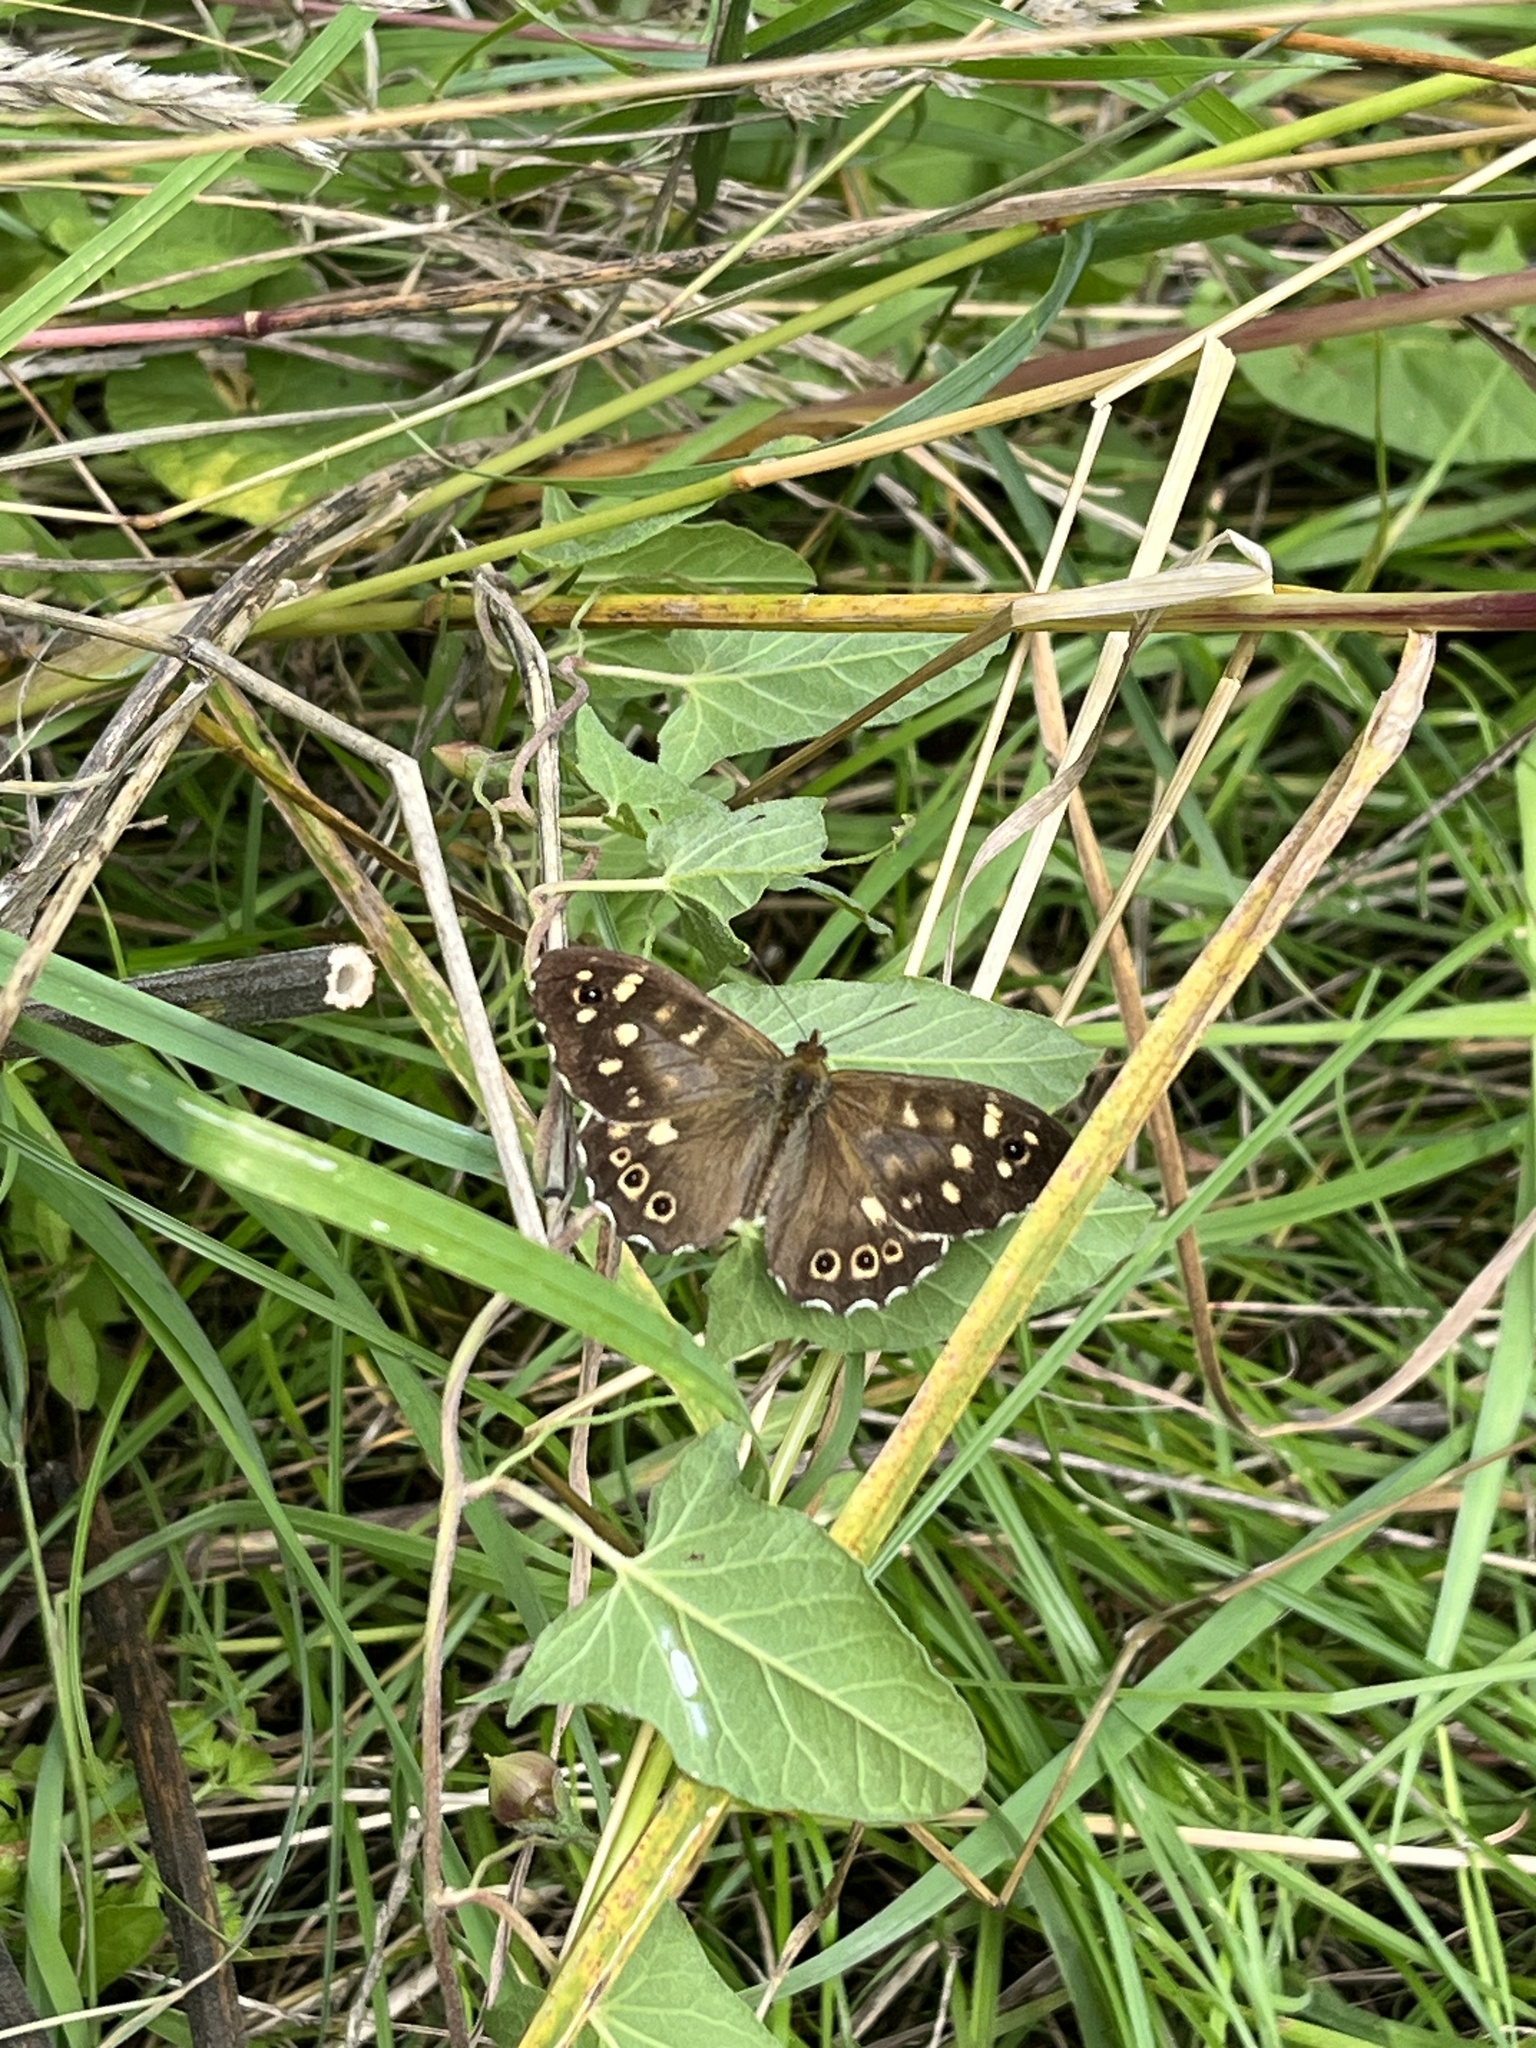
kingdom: Animalia
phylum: Arthropoda
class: Insecta
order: Lepidoptera
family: Nymphalidae
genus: Pararge
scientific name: Pararge aegeria
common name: Speckled wood
